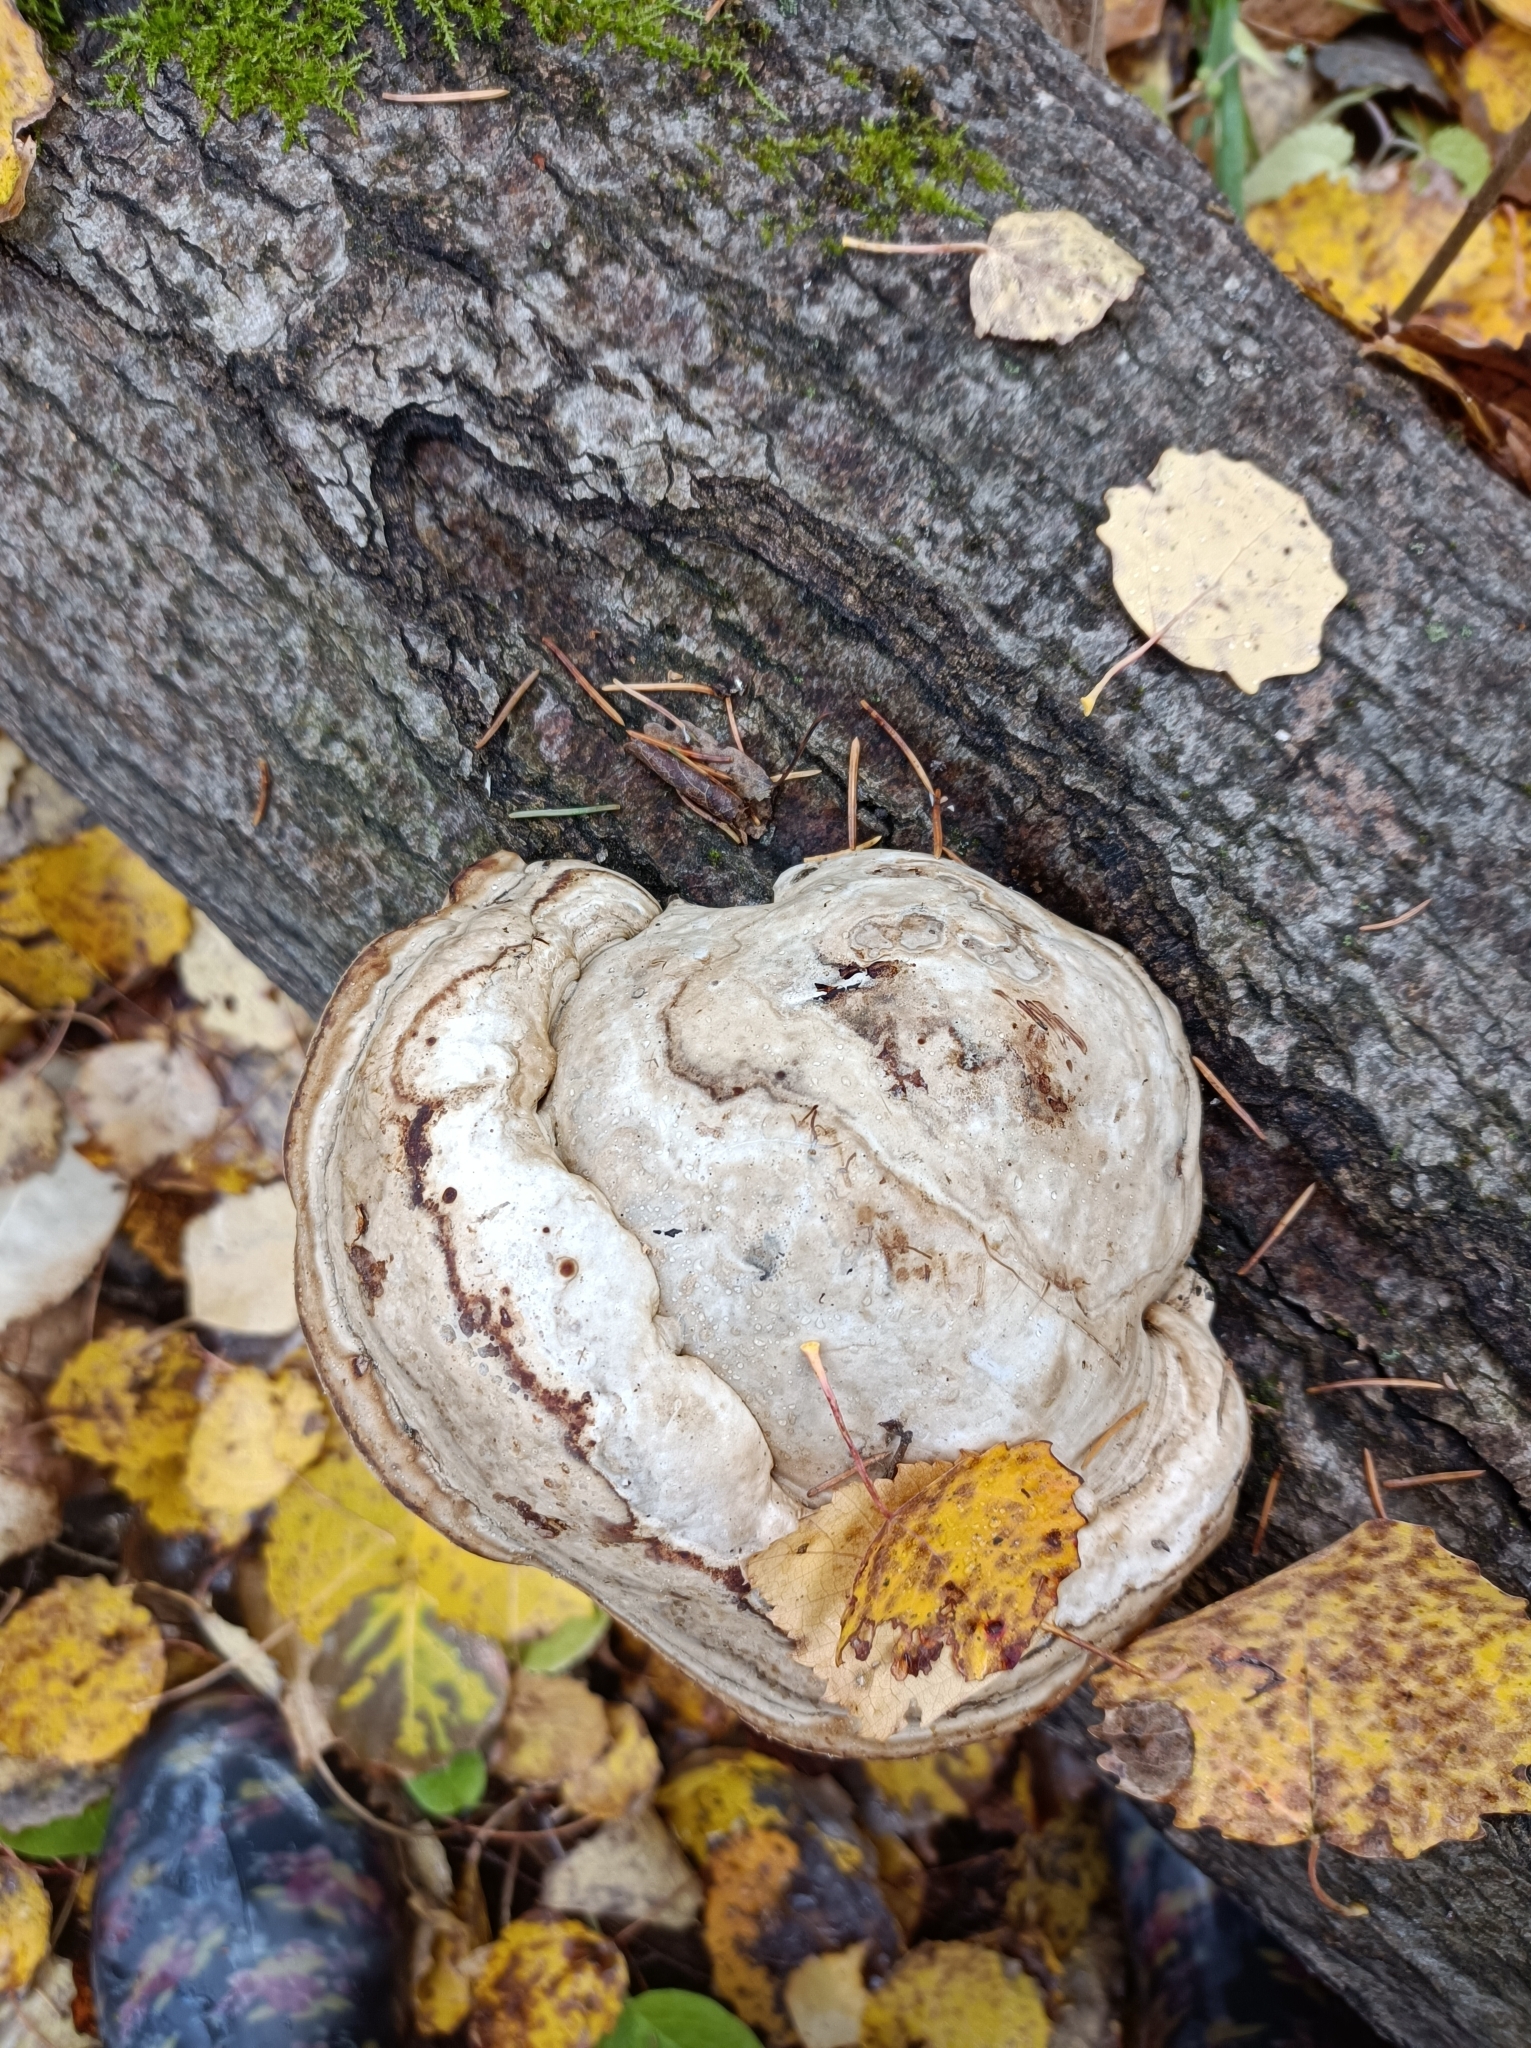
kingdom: Fungi
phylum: Basidiomycota
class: Agaricomycetes
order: Polyporales
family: Polyporaceae
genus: Fomes
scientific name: Fomes fomentarius
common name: Hoof fungus
